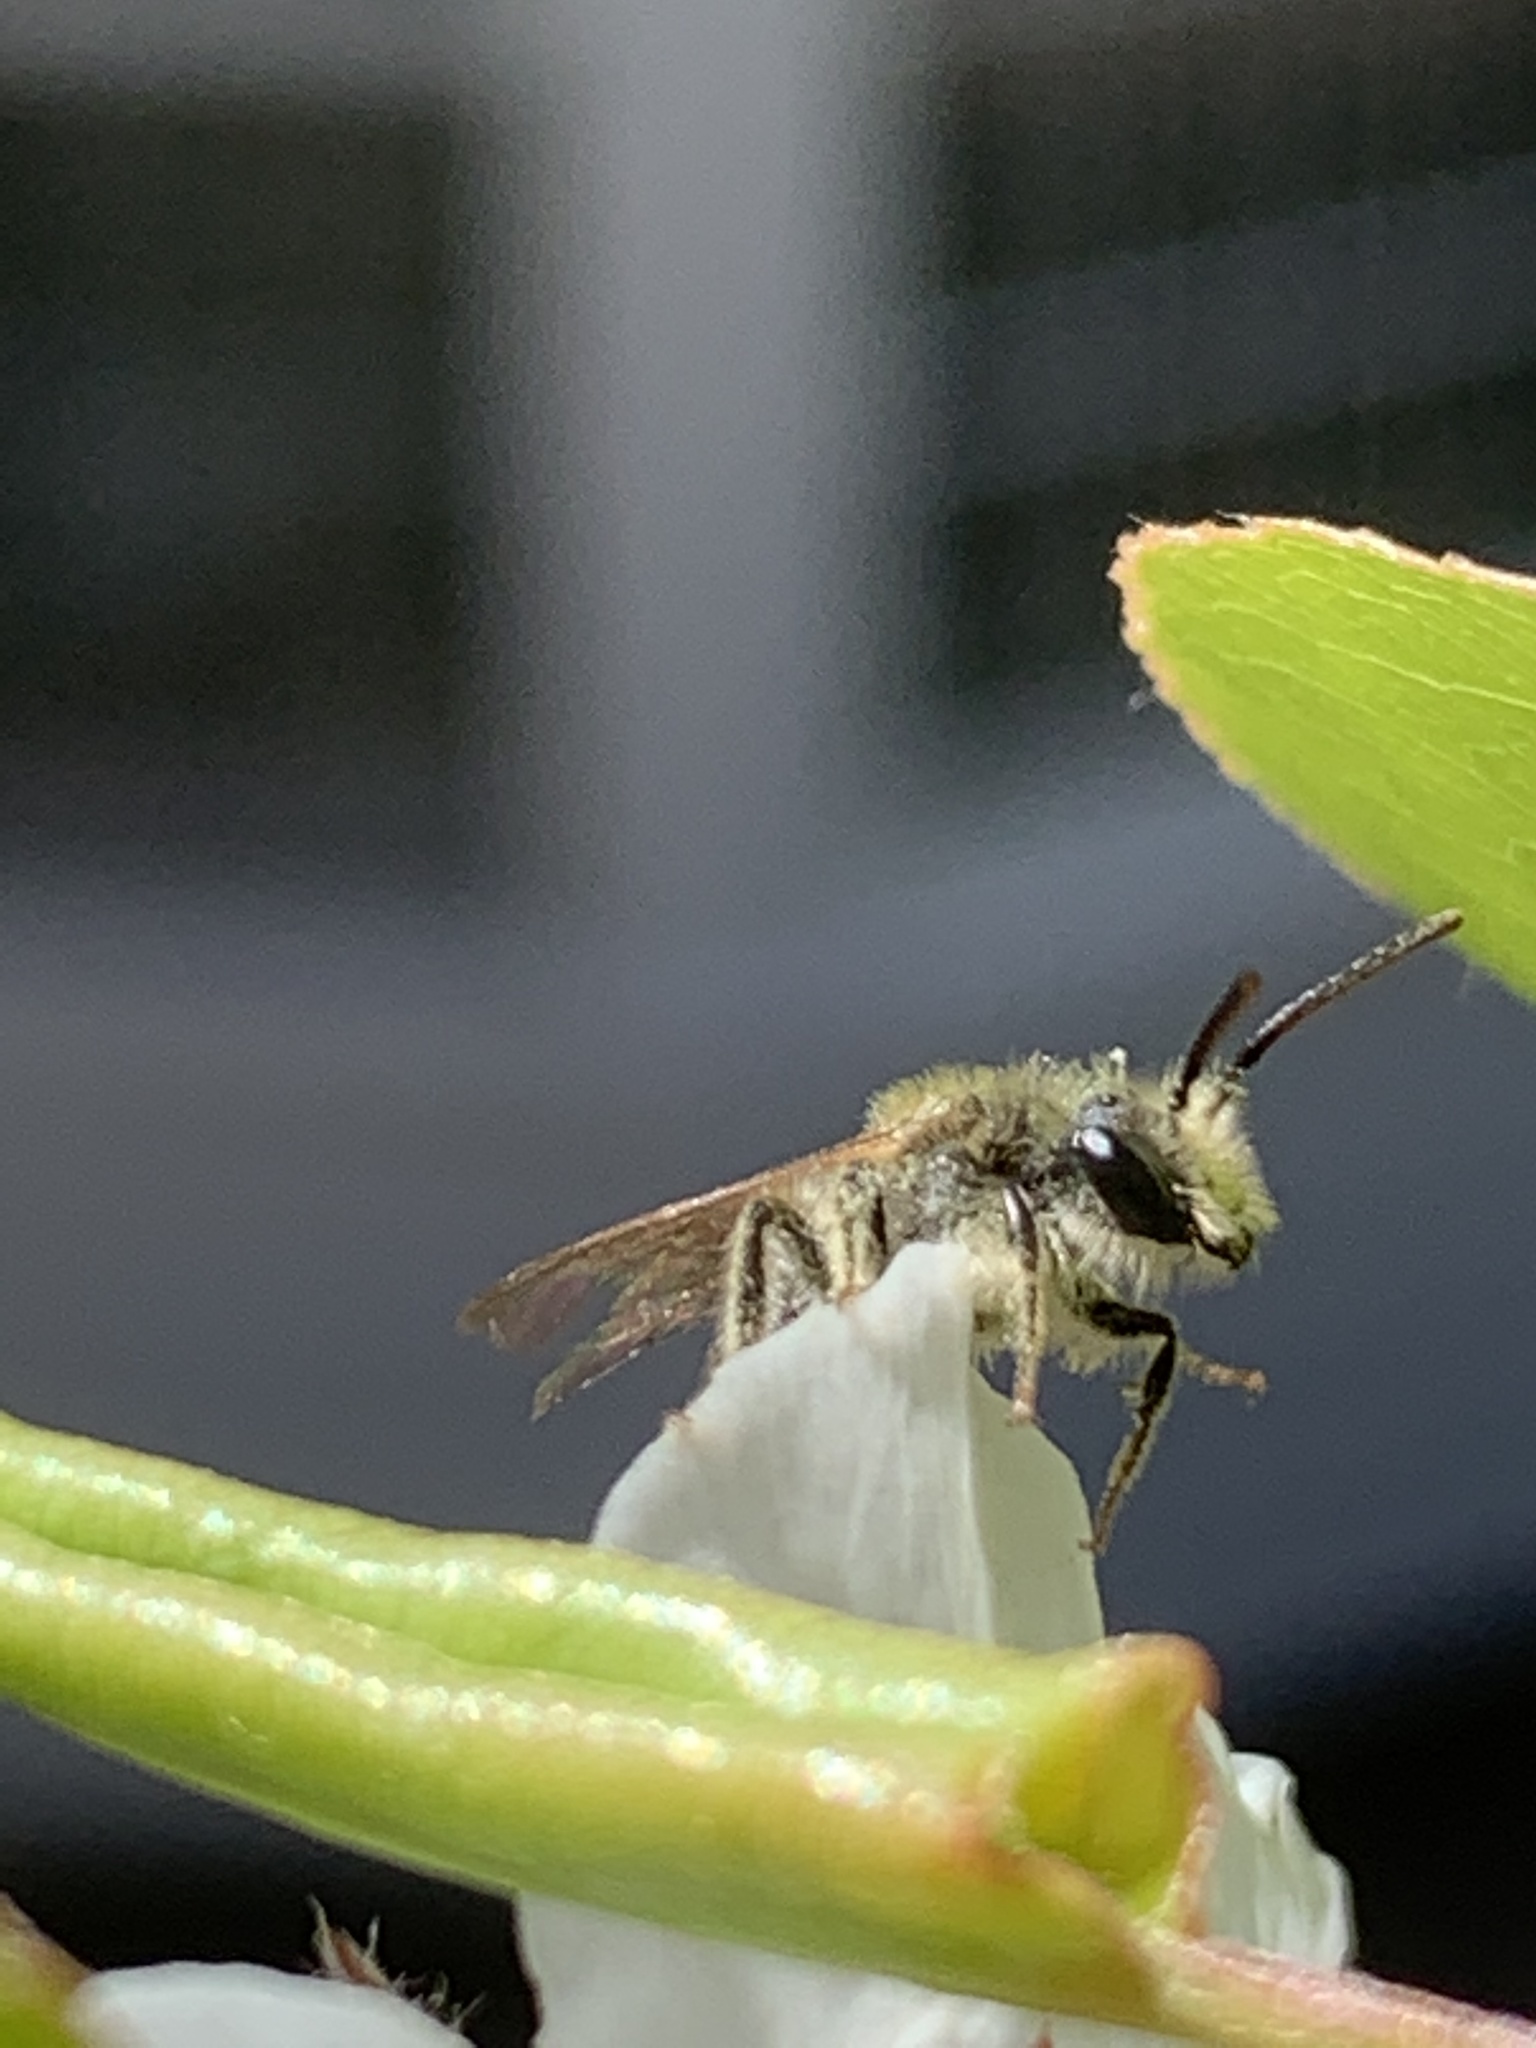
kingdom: Animalia
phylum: Arthropoda
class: Insecta
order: Hymenoptera
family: Andrenidae
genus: Andrena
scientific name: Andrena
